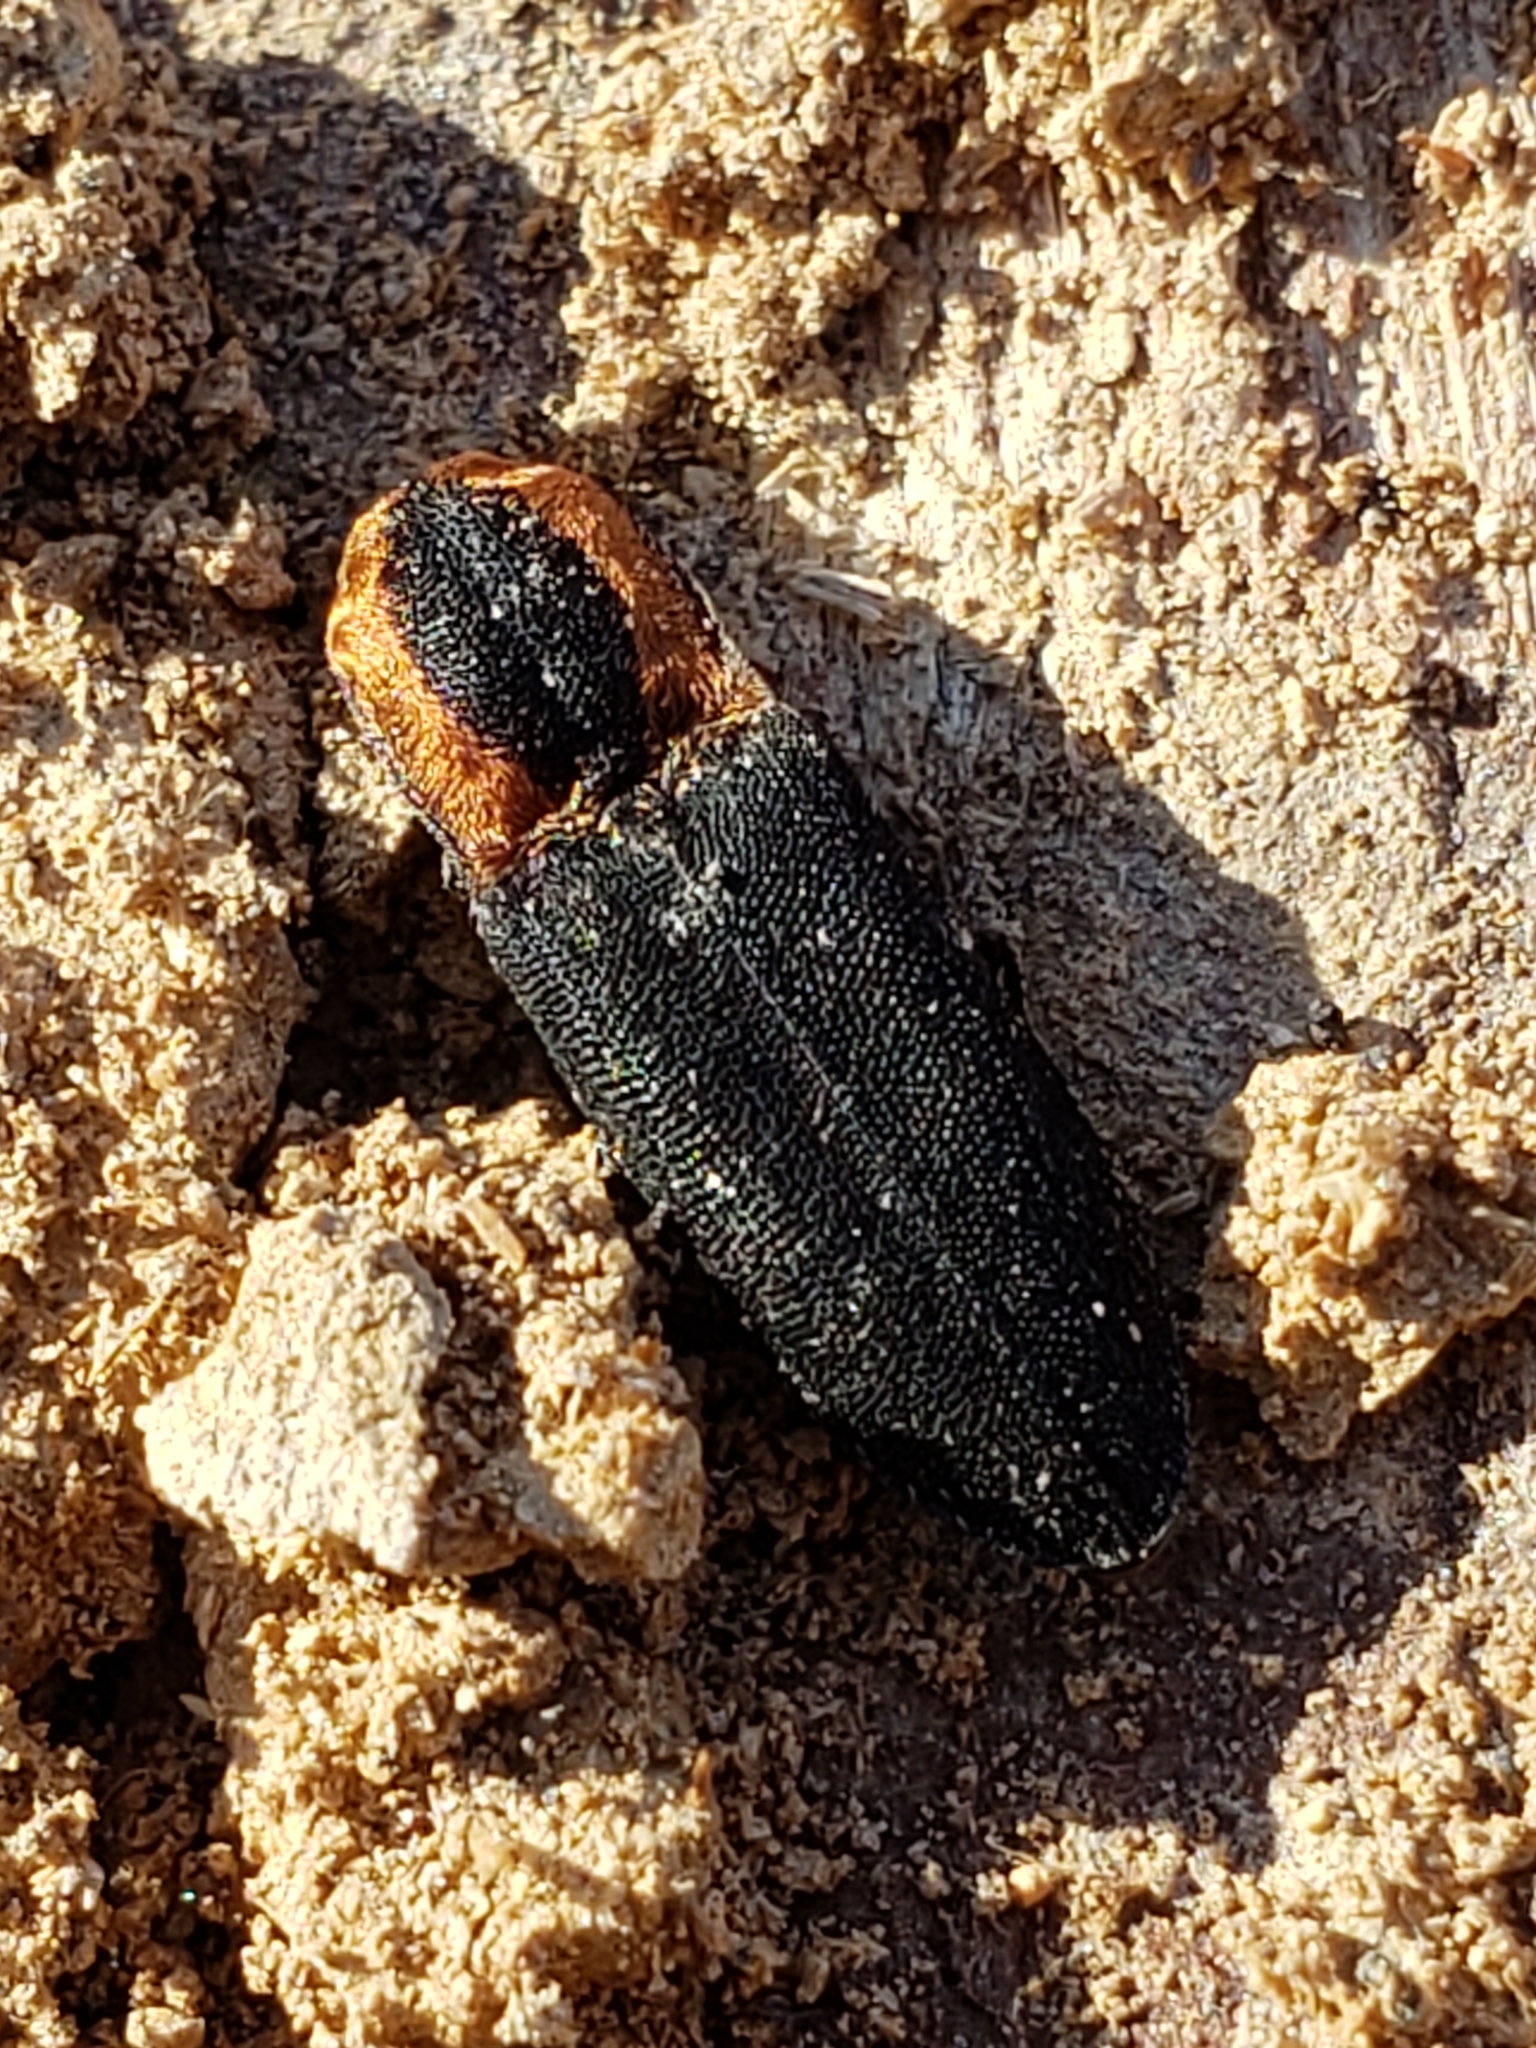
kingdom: Animalia
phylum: Arthropoda
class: Insecta
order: Coleoptera
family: Elateridae
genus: Lacon
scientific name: Lacon discoideus
